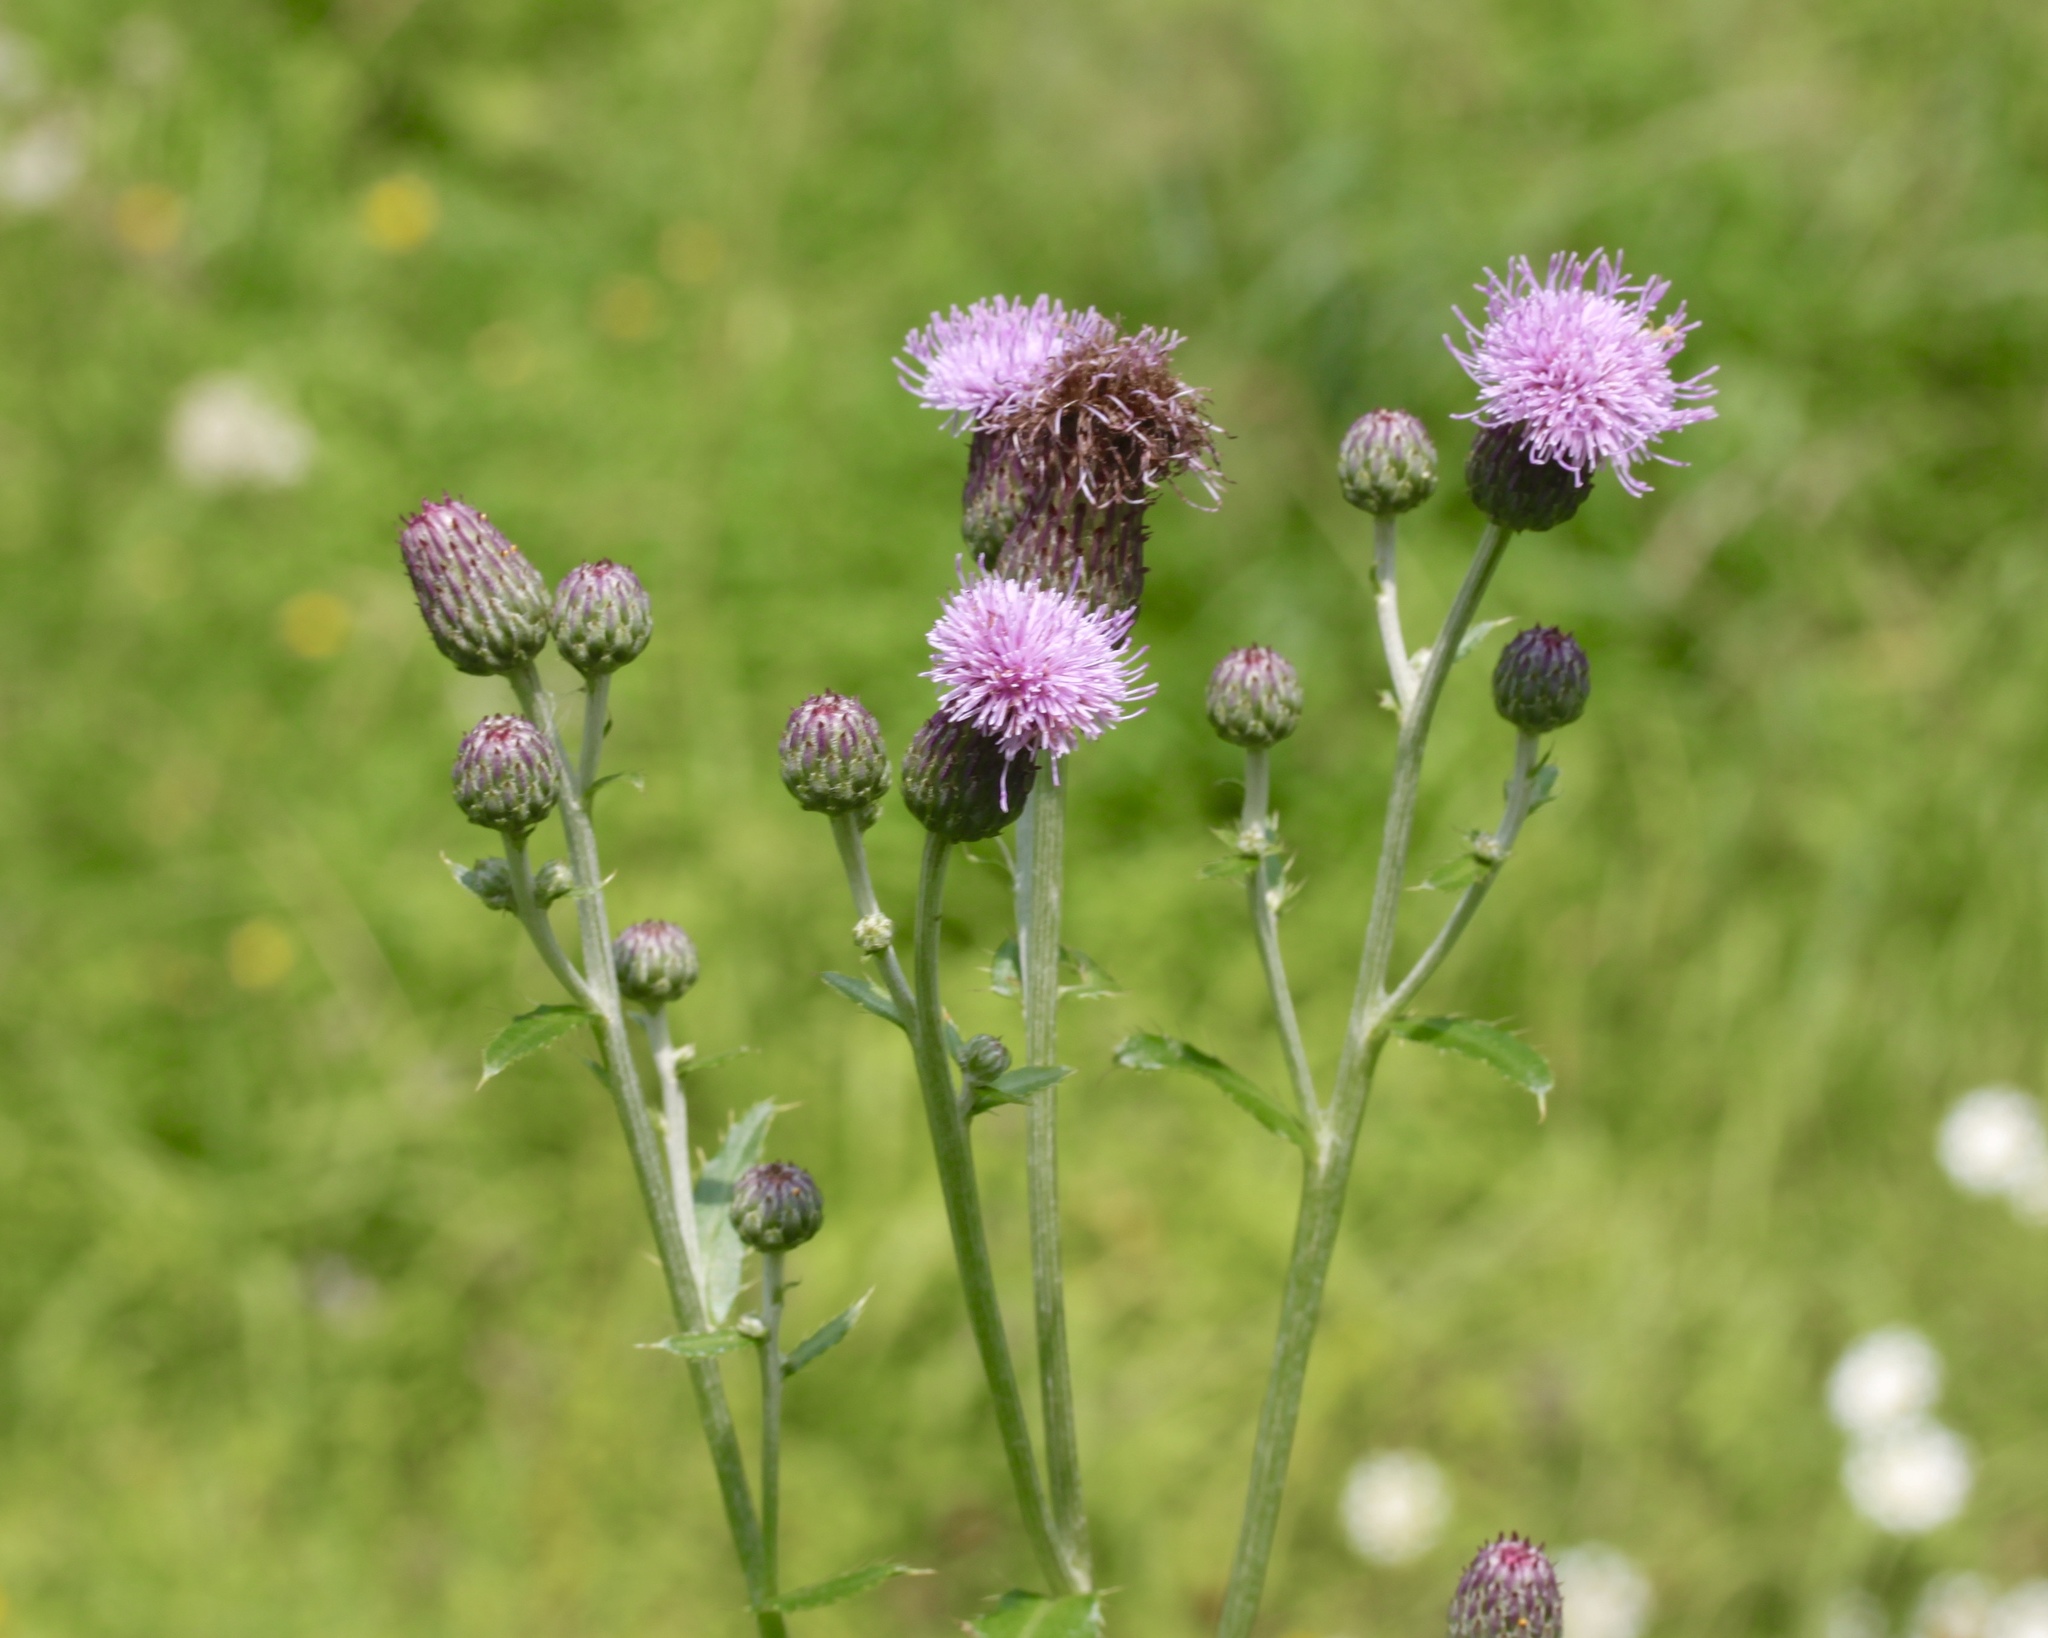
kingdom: Plantae
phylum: Tracheophyta
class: Magnoliopsida
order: Asterales
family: Asteraceae
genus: Cirsium
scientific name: Cirsium arvense
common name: Creeping thistle
